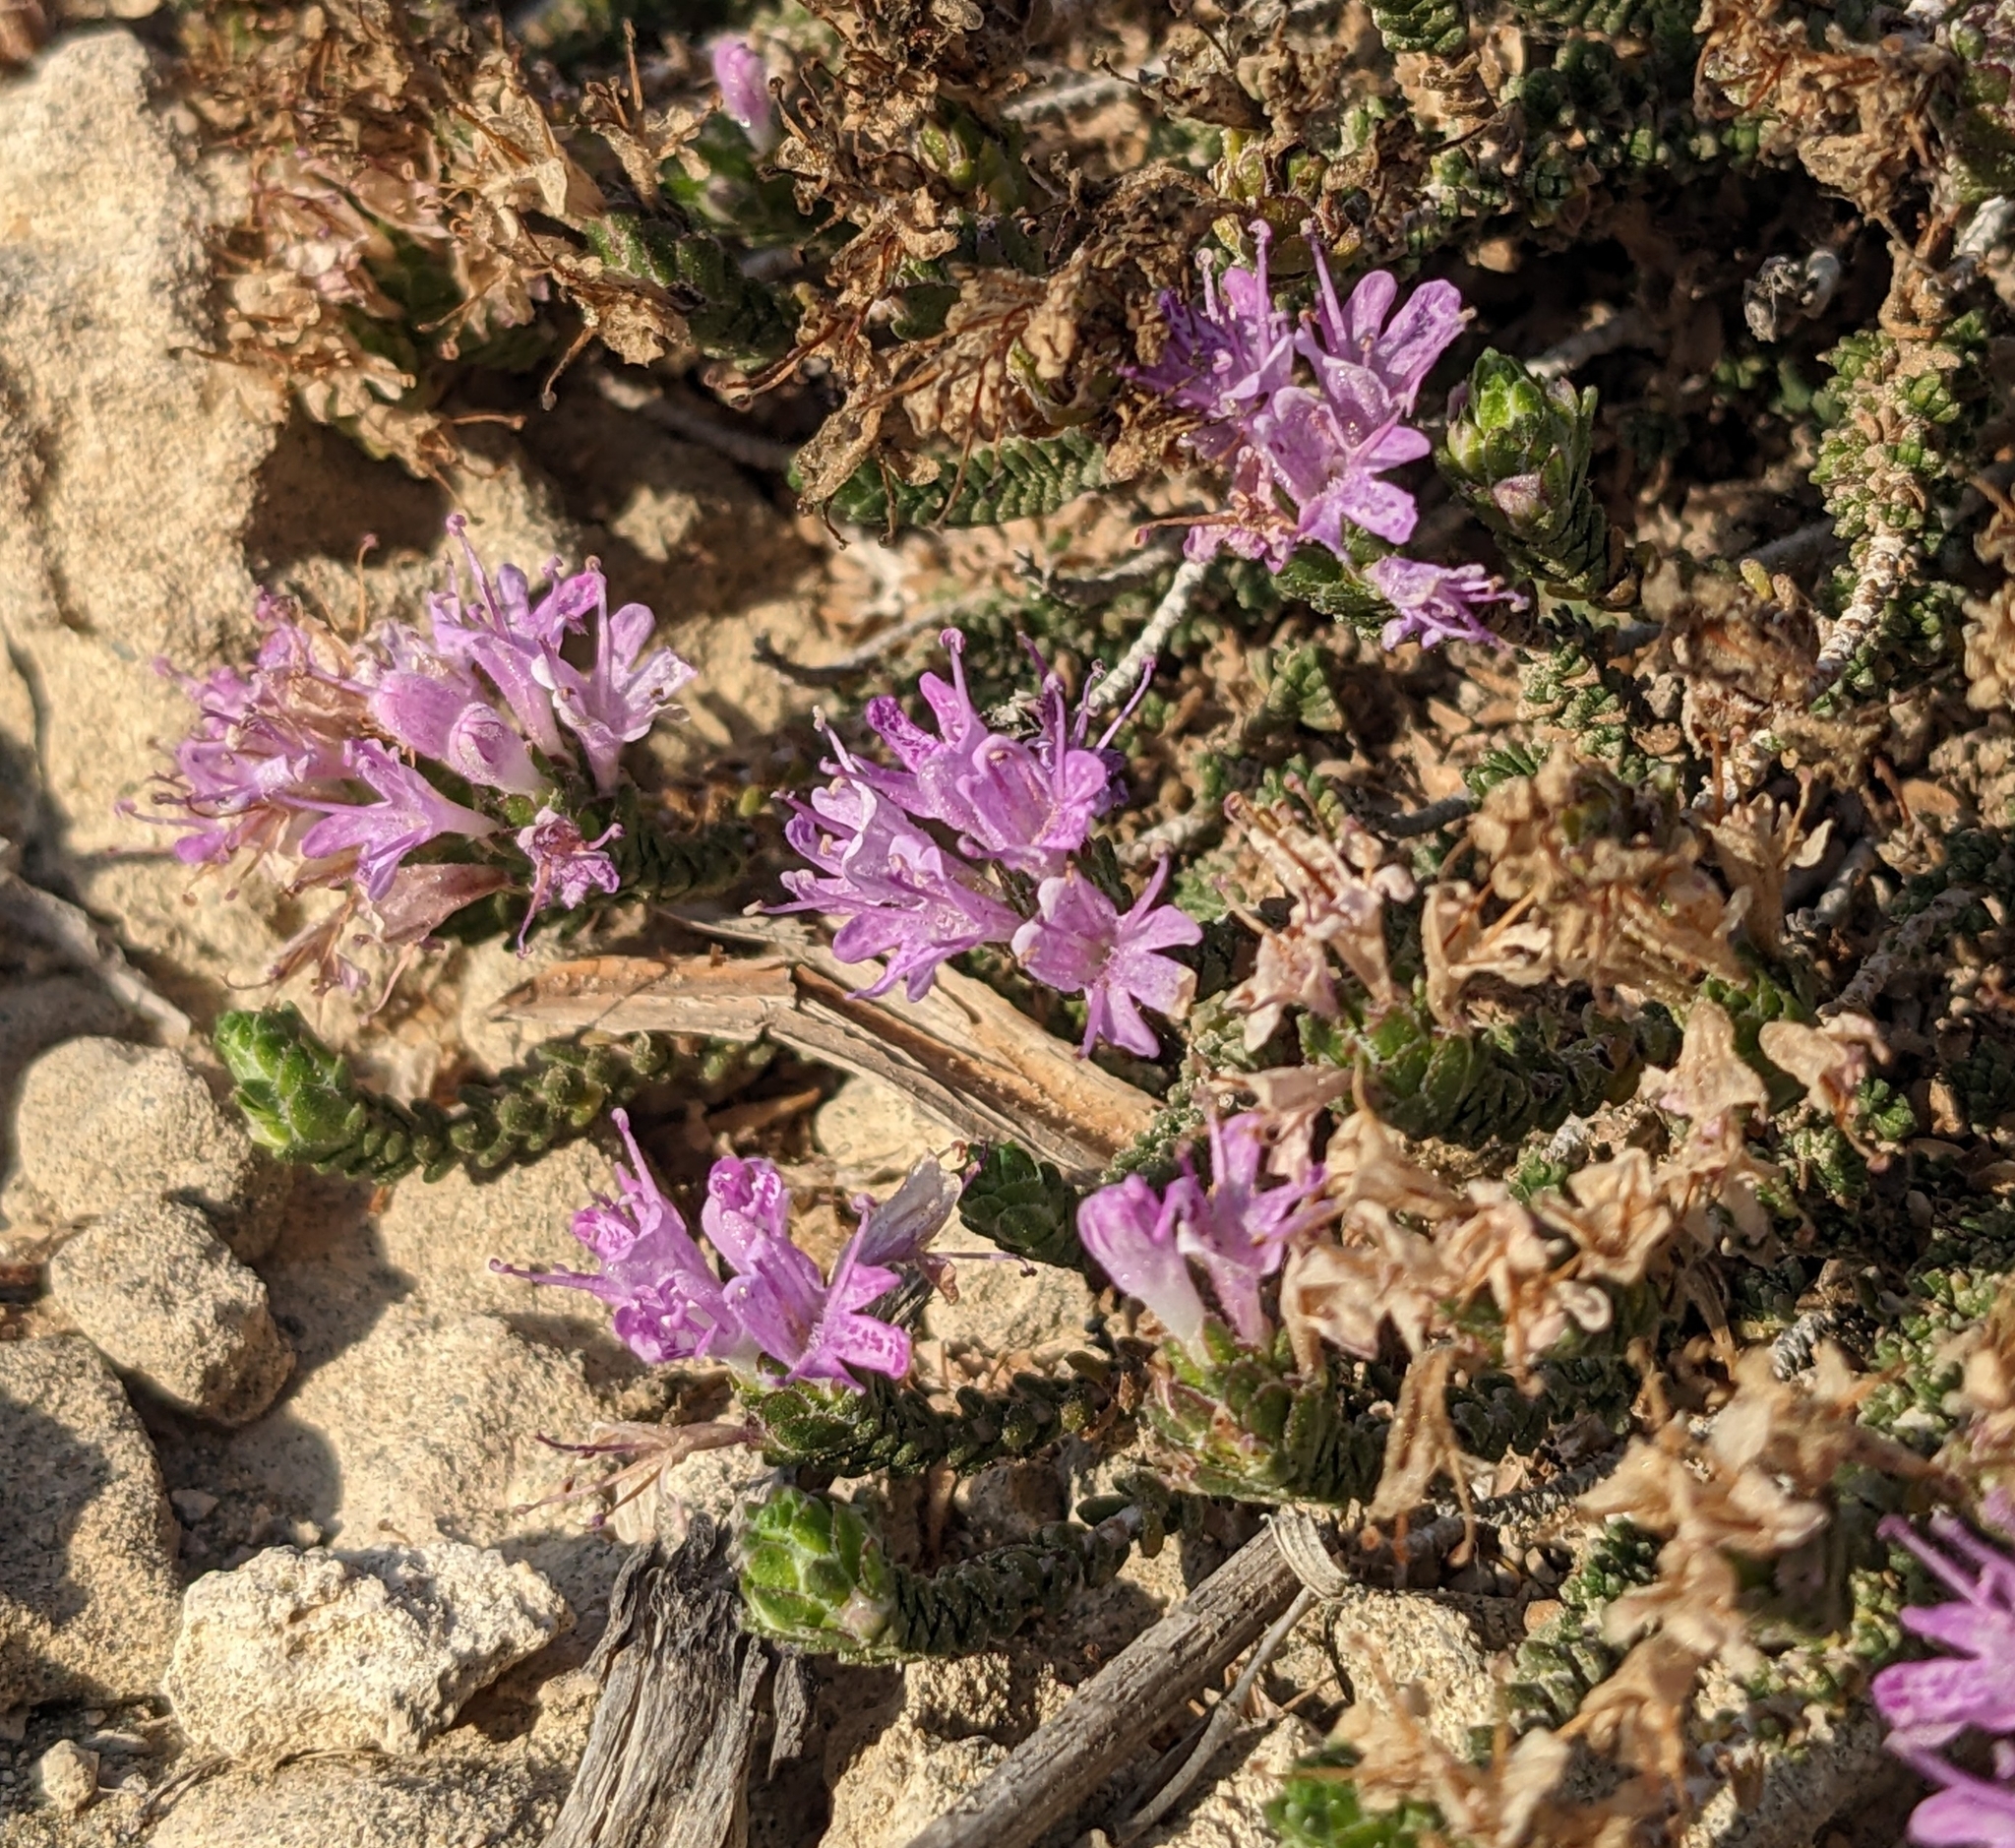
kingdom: Plantae
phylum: Tracheophyta
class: Magnoliopsida
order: Lamiales
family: Lamiaceae
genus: Thymbra
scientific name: Thymbra capitata
